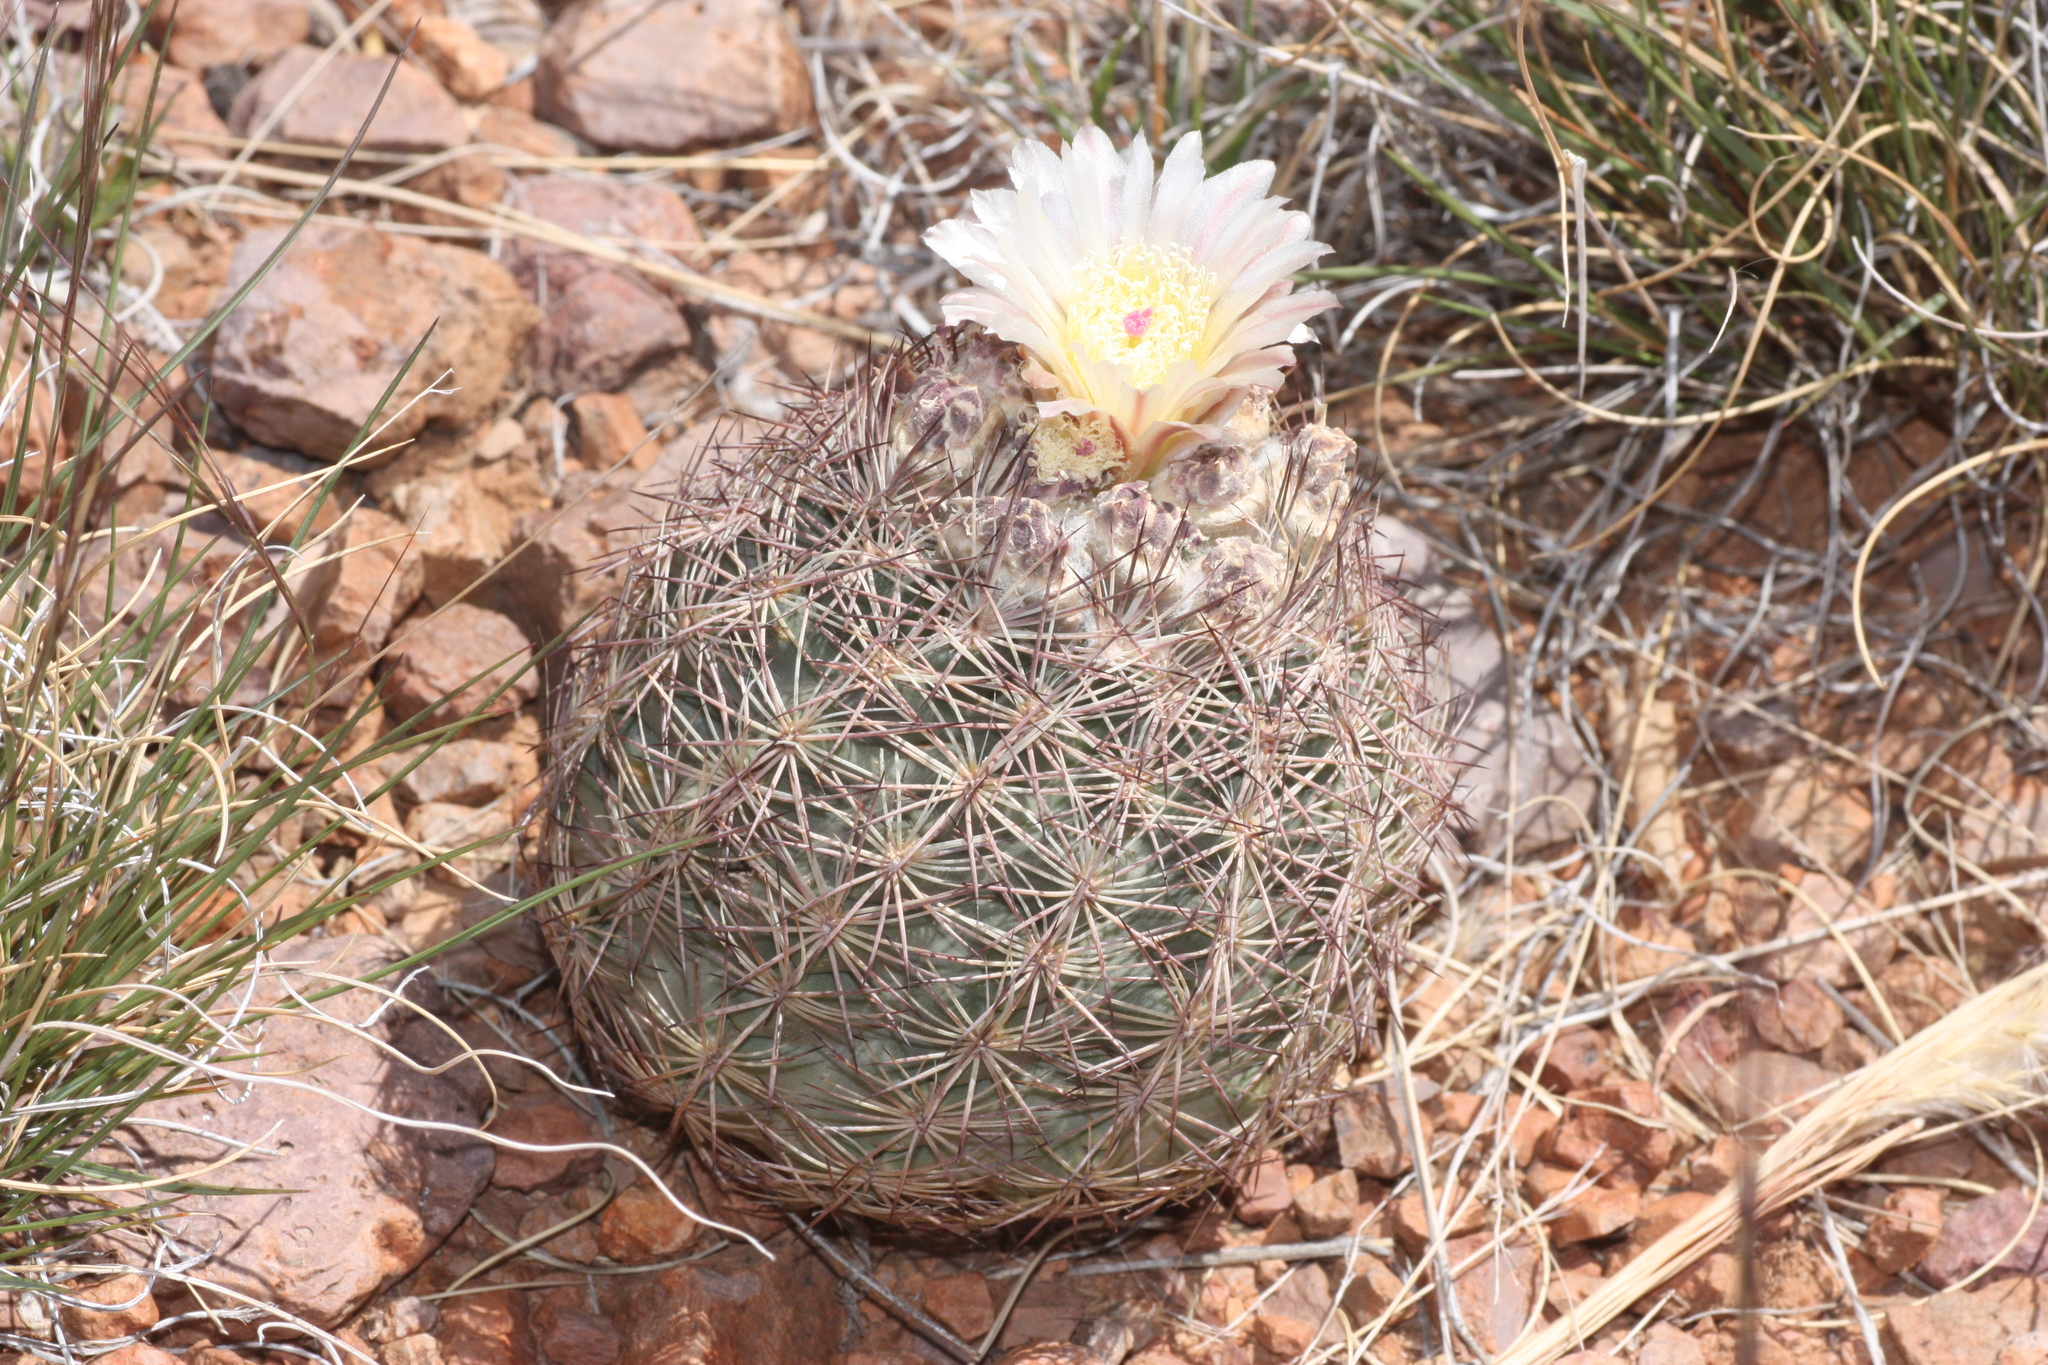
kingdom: Plantae
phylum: Tracheophyta
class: Magnoliopsida
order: Caryophyllales
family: Cactaceae
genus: Sclerocactus
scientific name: Sclerocactus intertextus
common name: White fish-hook cactus
